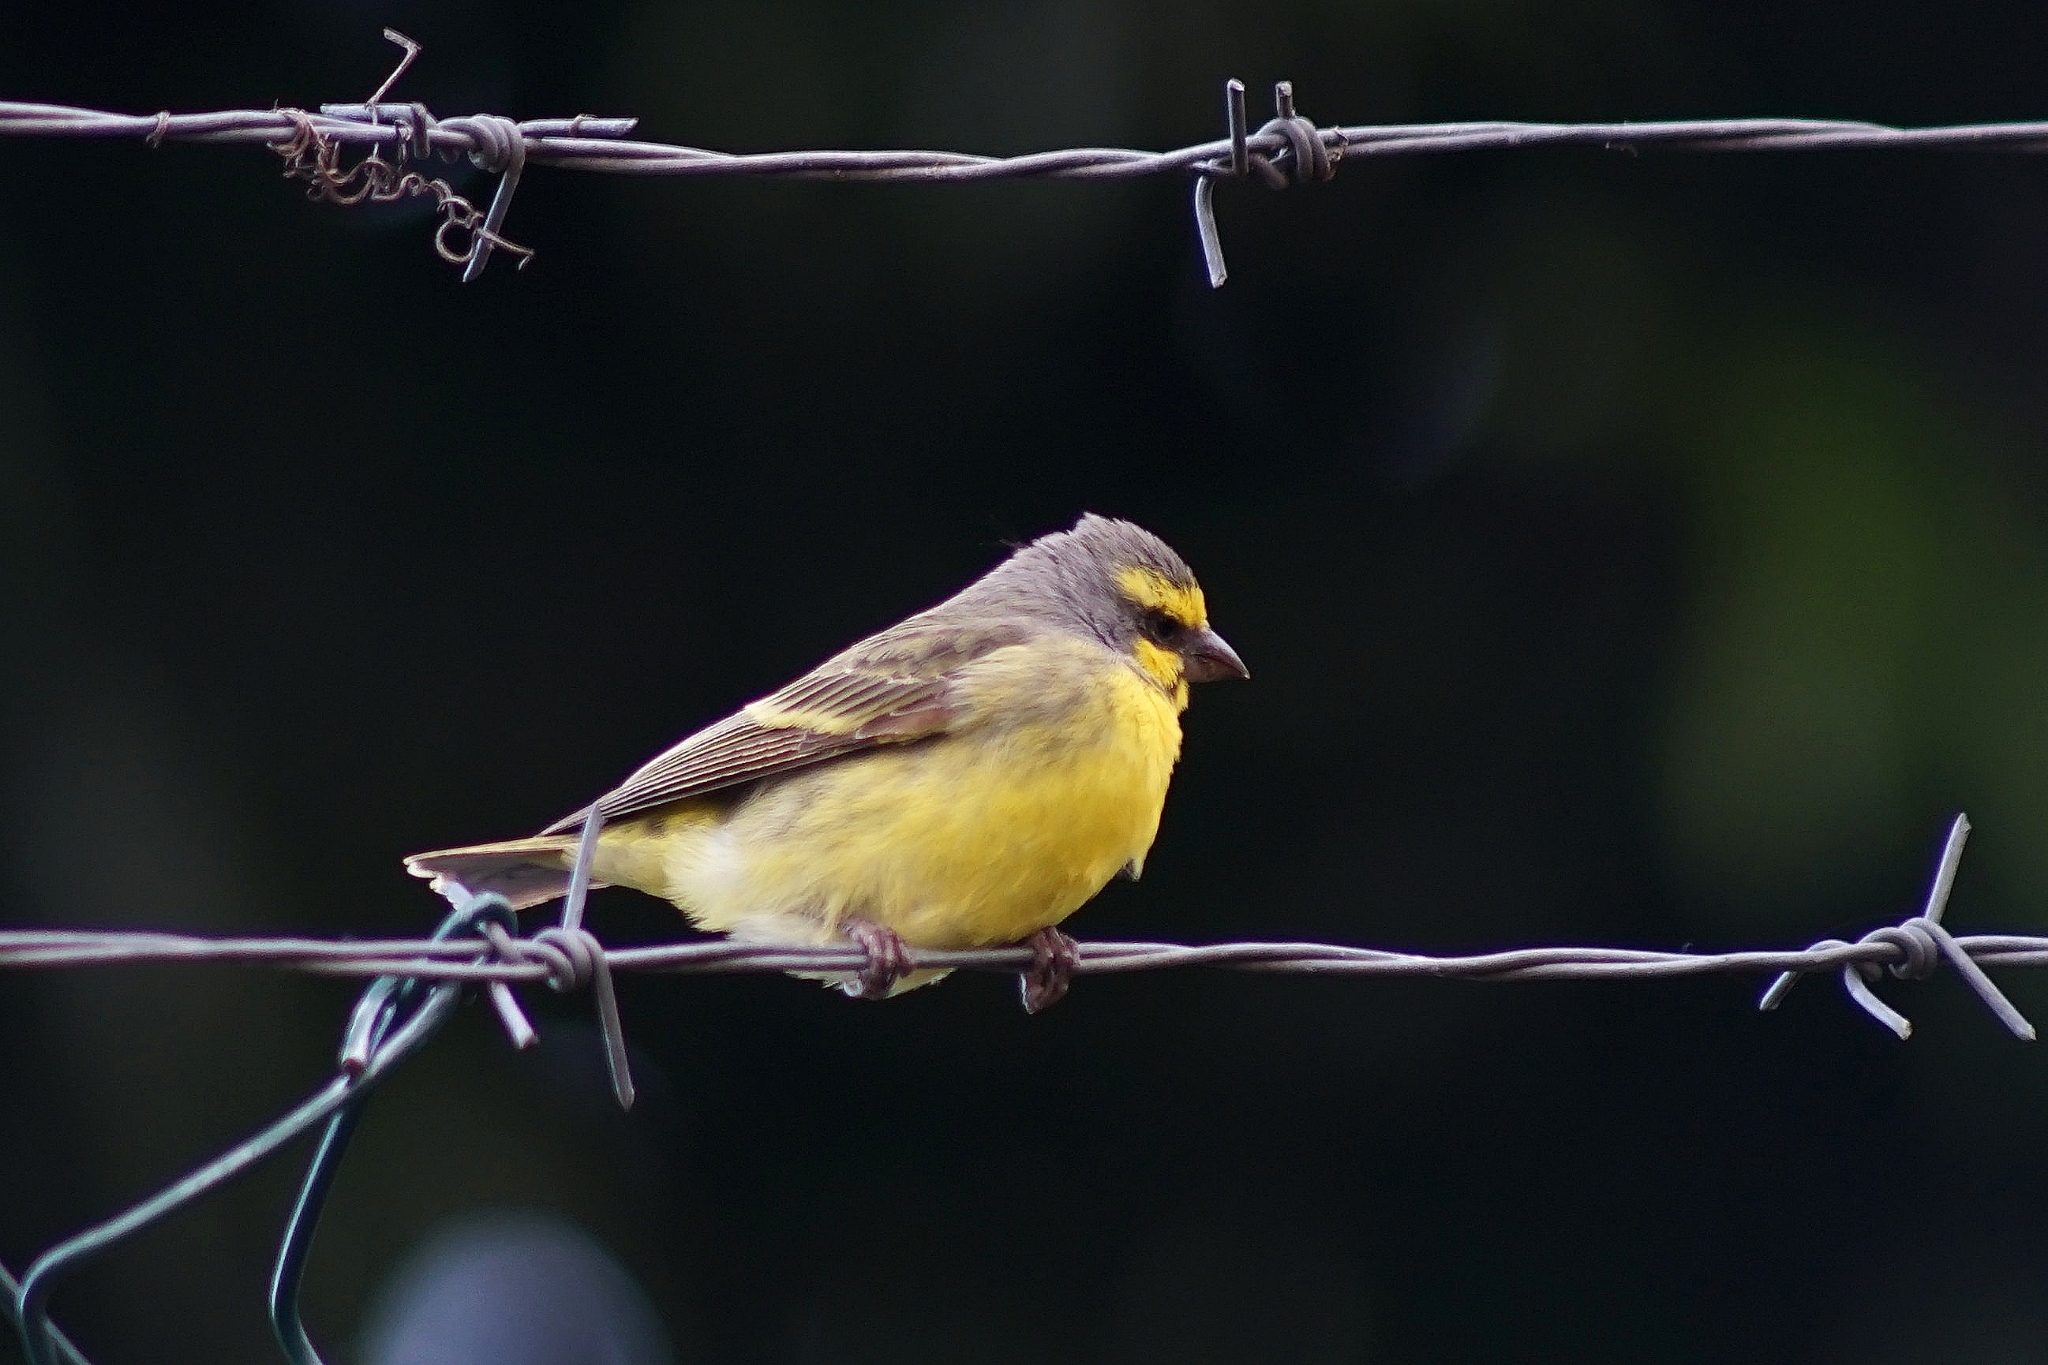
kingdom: Animalia
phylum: Chordata
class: Aves
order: Passeriformes
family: Fringillidae
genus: Crithagra
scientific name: Crithagra mozambica
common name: Yellow-fronted canary
